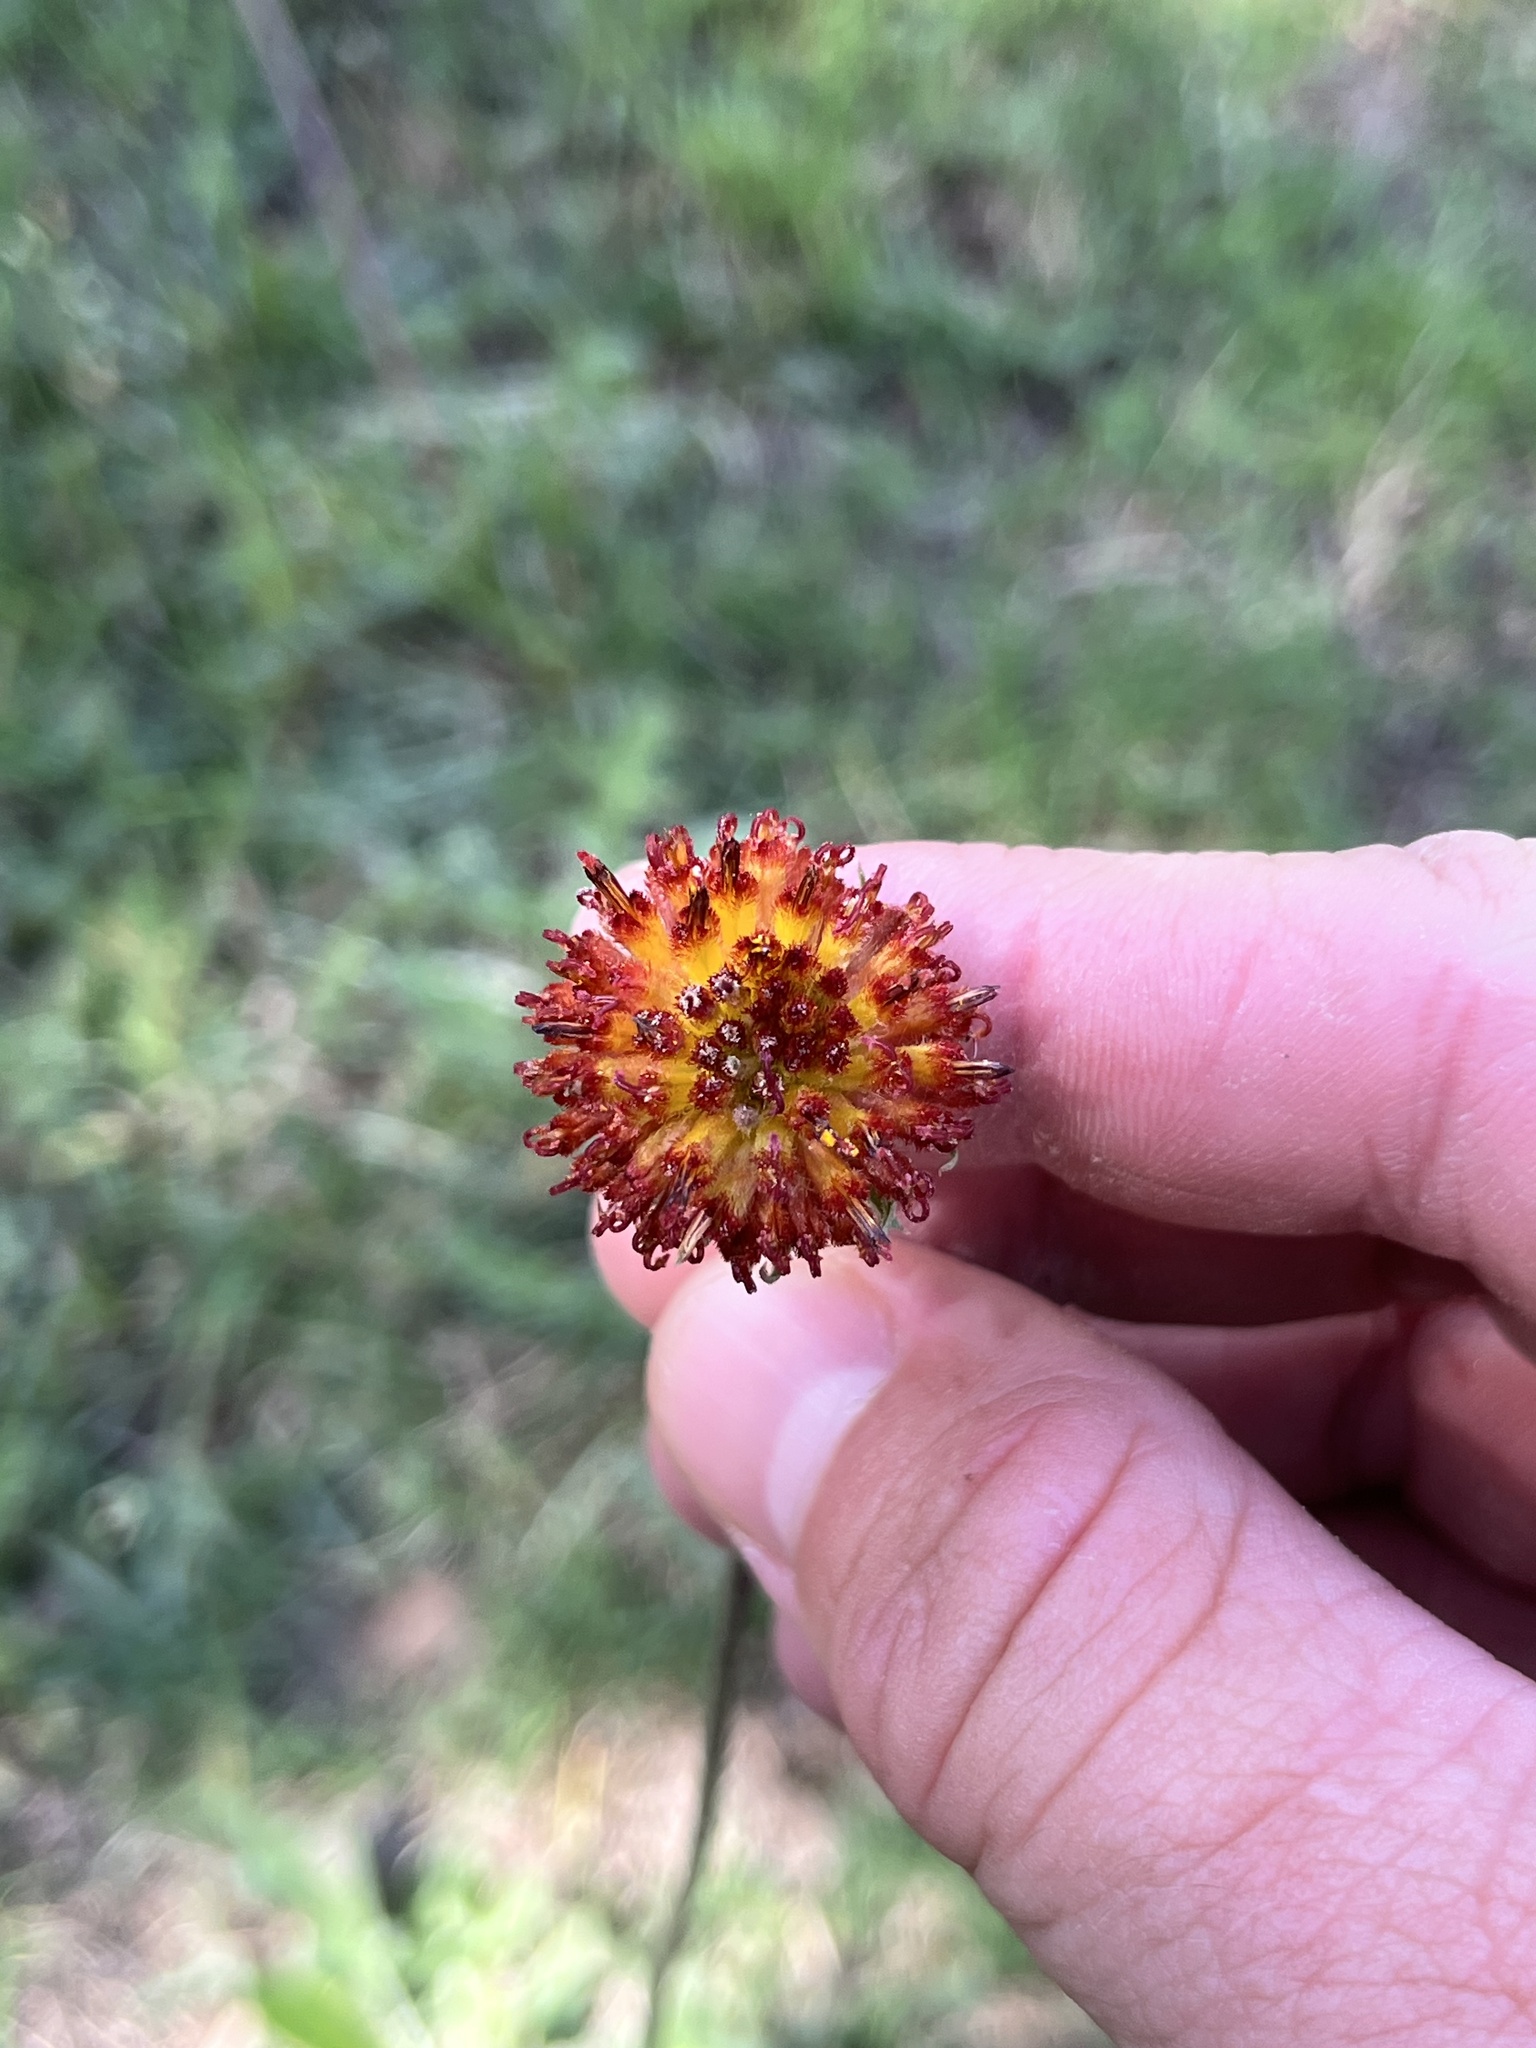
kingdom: Plantae
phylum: Tracheophyta
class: Magnoliopsida
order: Asterales
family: Asteraceae
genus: Gaillardia
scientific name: Gaillardia suavis
